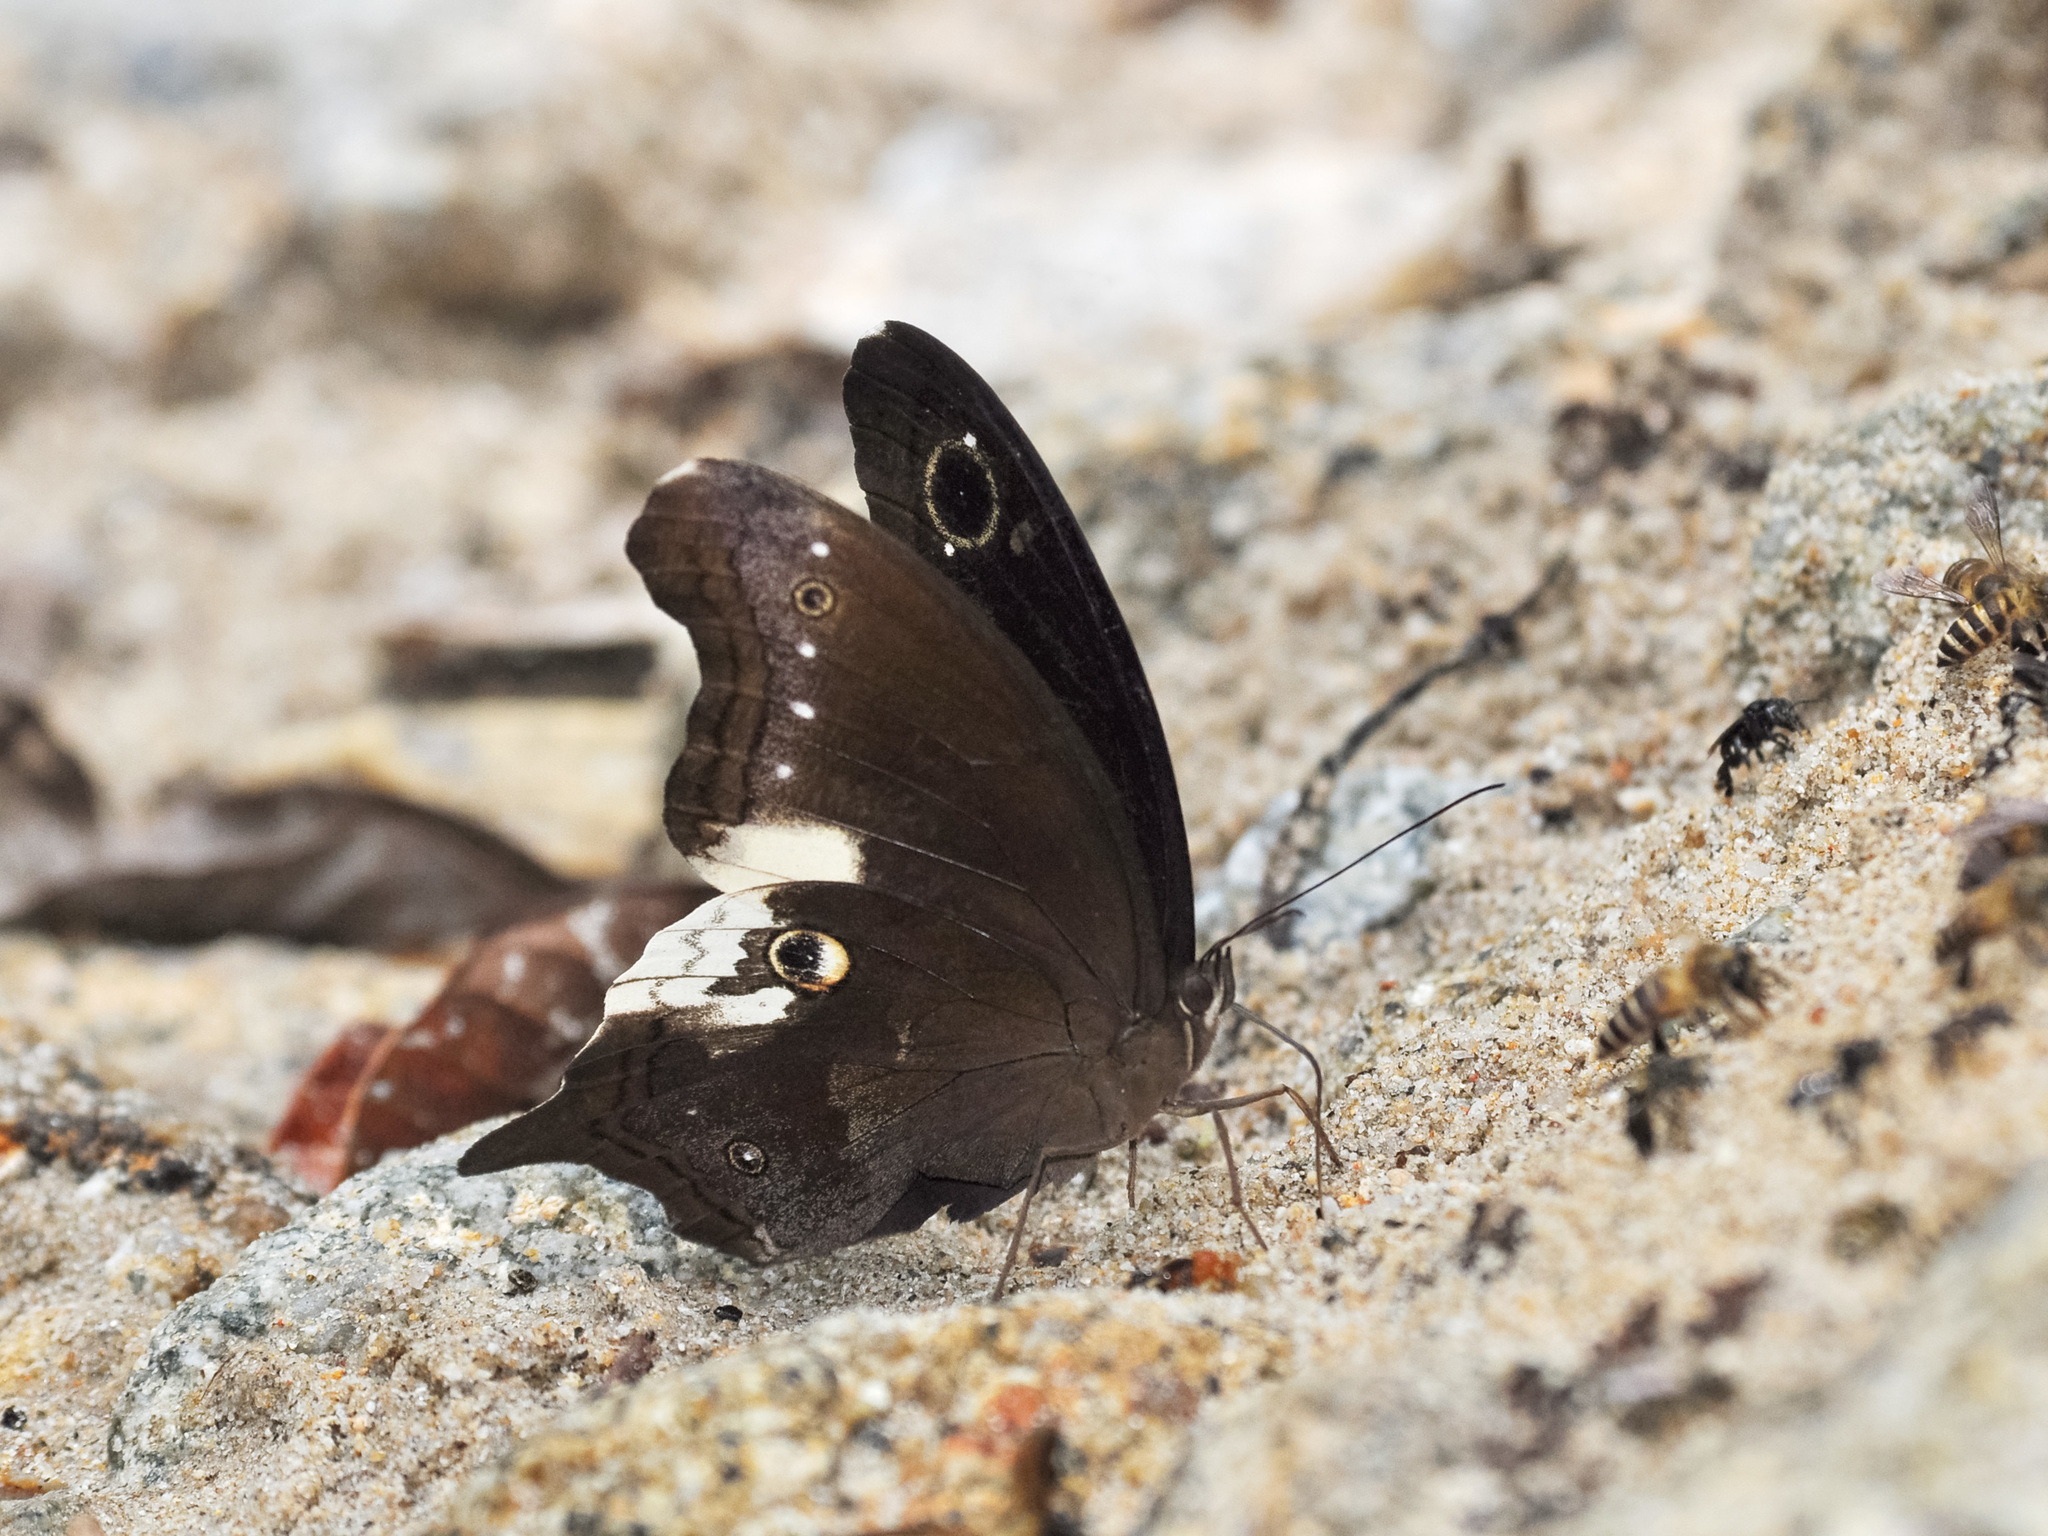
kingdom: Animalia
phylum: Arthropoda
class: Insecta
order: Lepidoptera
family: Nymphalidae
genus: Neorina
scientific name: Neorina lowii
